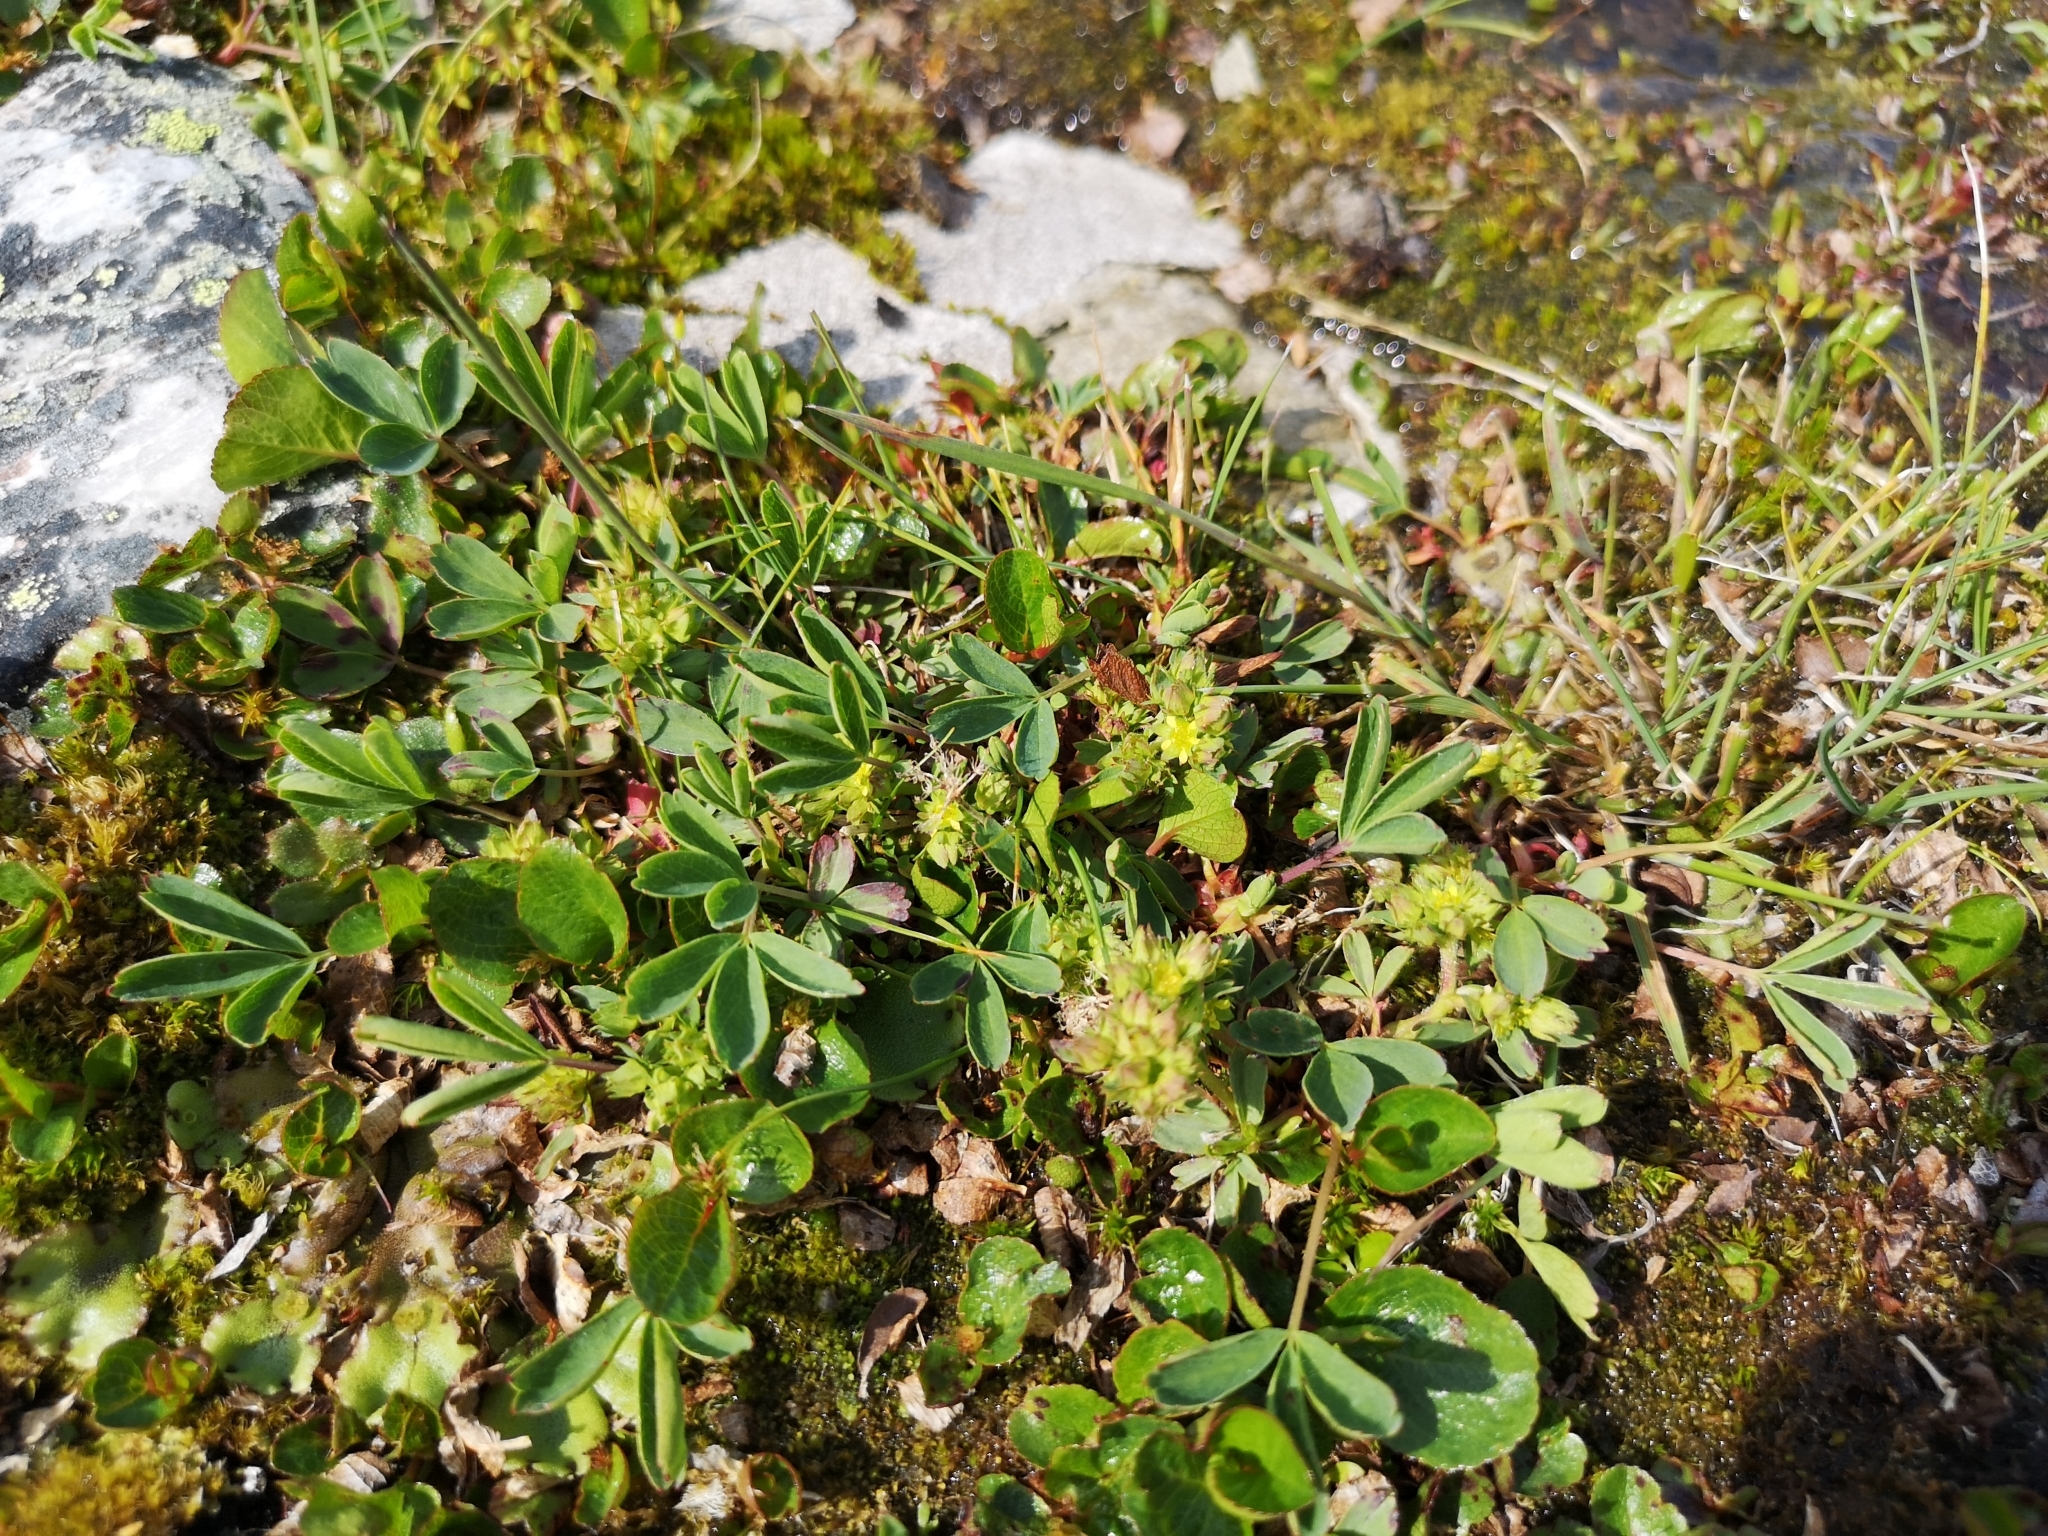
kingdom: Plantae
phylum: Tracheophyta
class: Magnoliopsida
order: Rosales
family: Rosaceae
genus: Sibbaldia
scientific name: Sibbaldia procumbens
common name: Creeping sibbaldia
